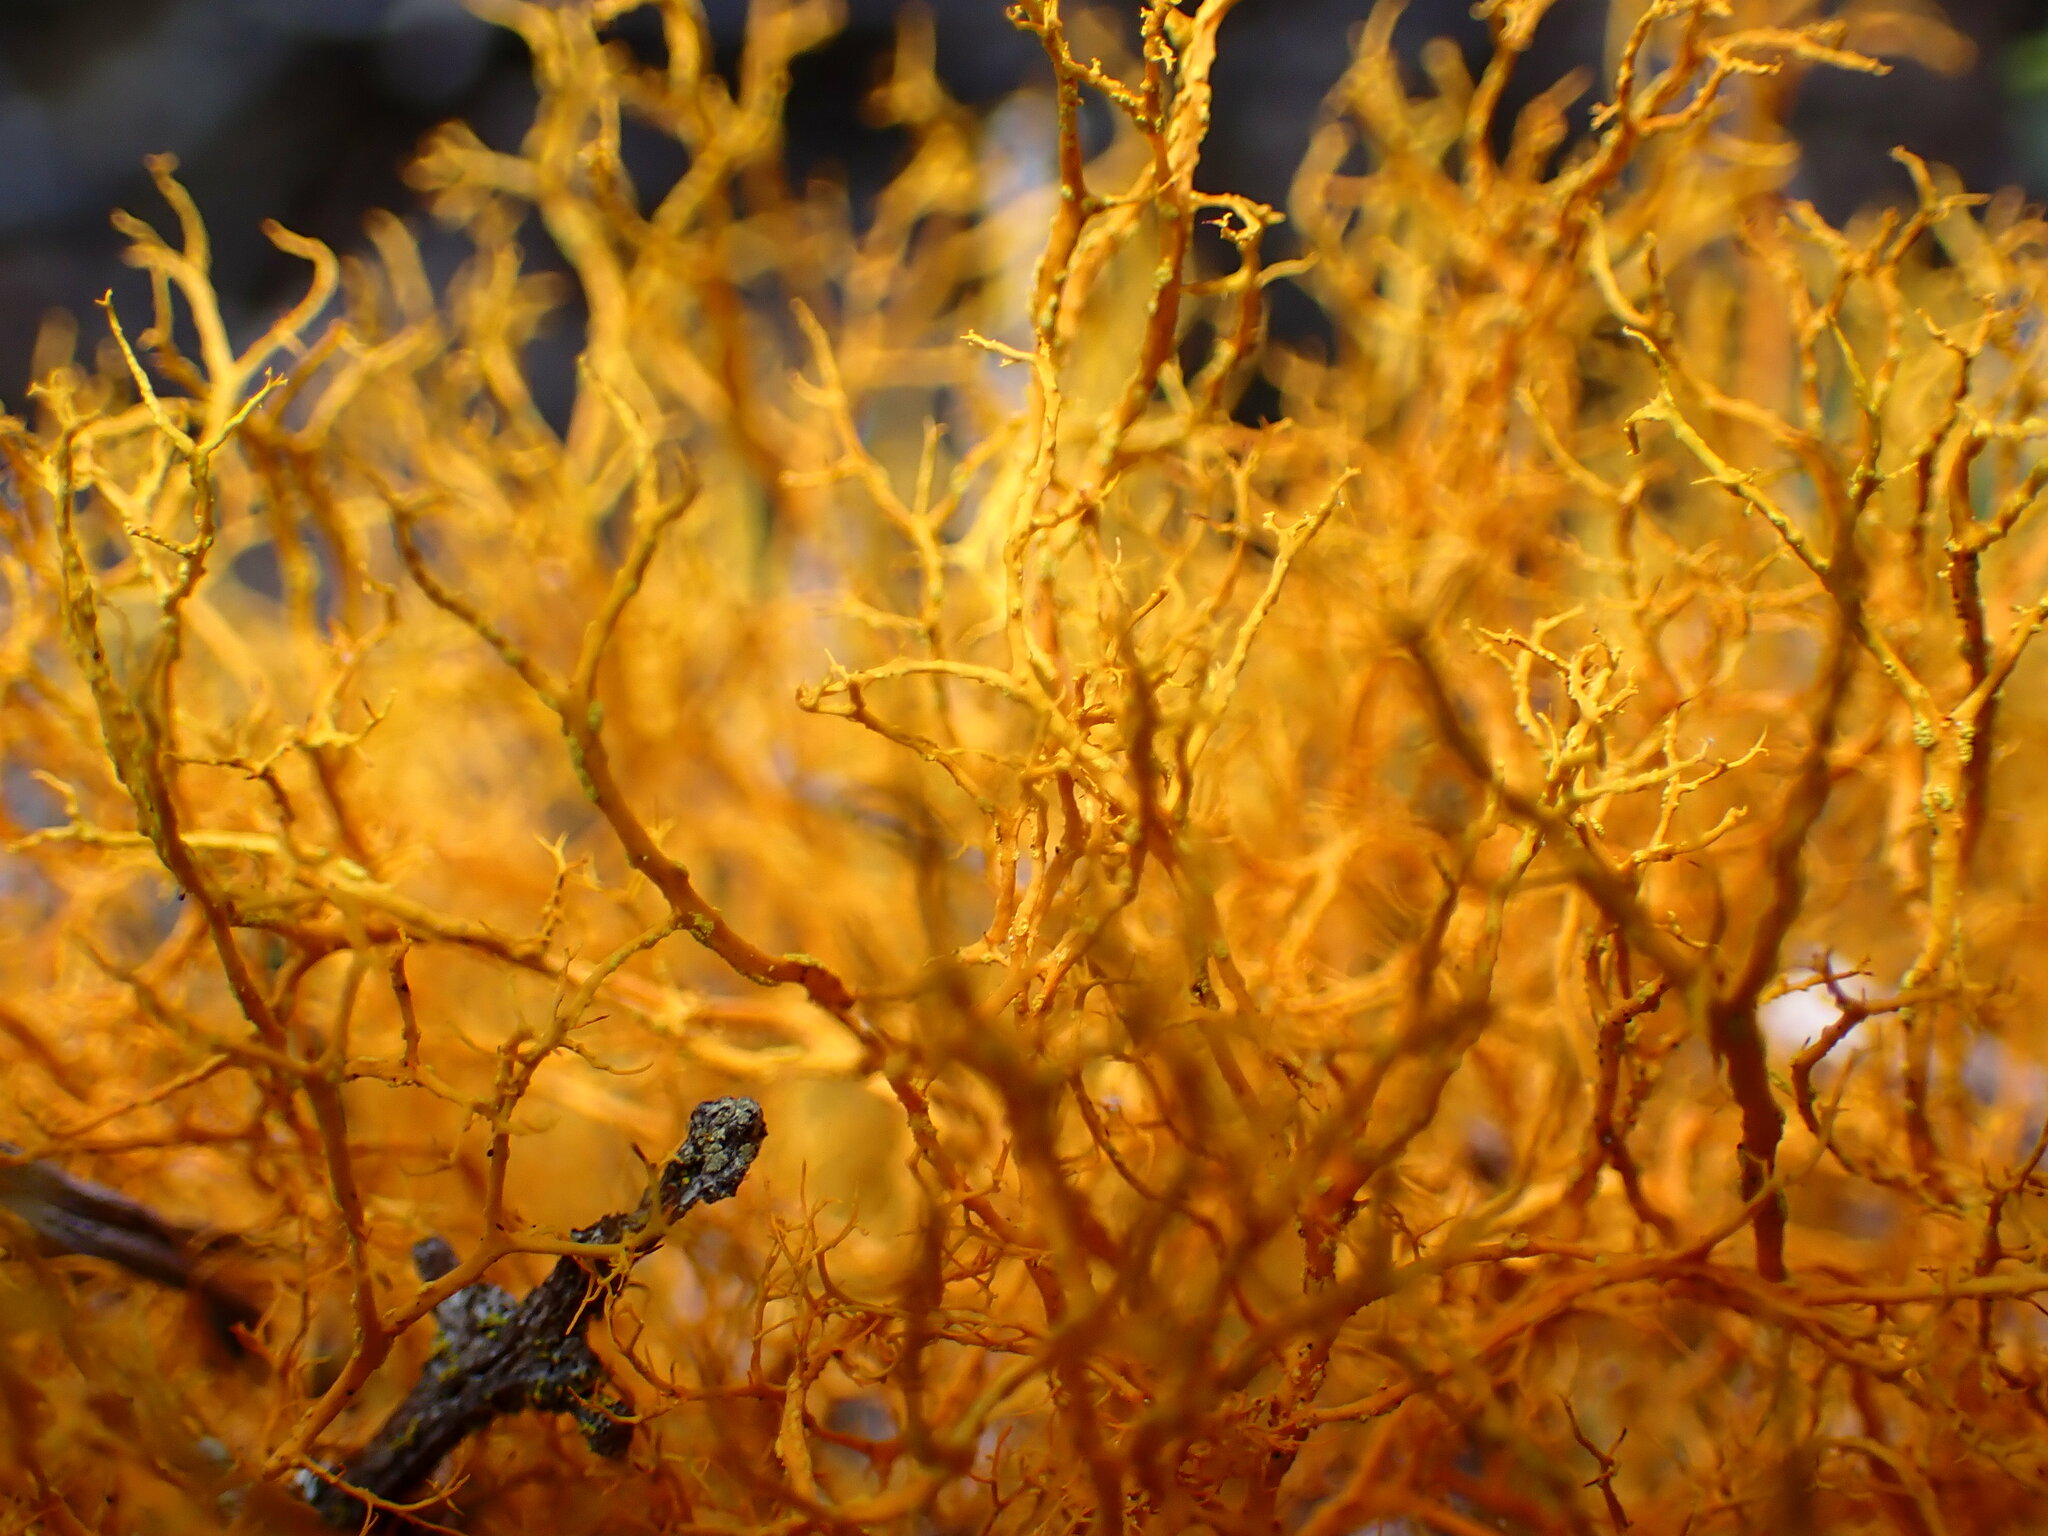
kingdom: Fungi
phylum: Ascomycota
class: Lecanoromycetes
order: Teloschistales
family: Teloschistaceae
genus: Teloschistes
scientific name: Teloschistes flavicans
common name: Golden hair-lichen
